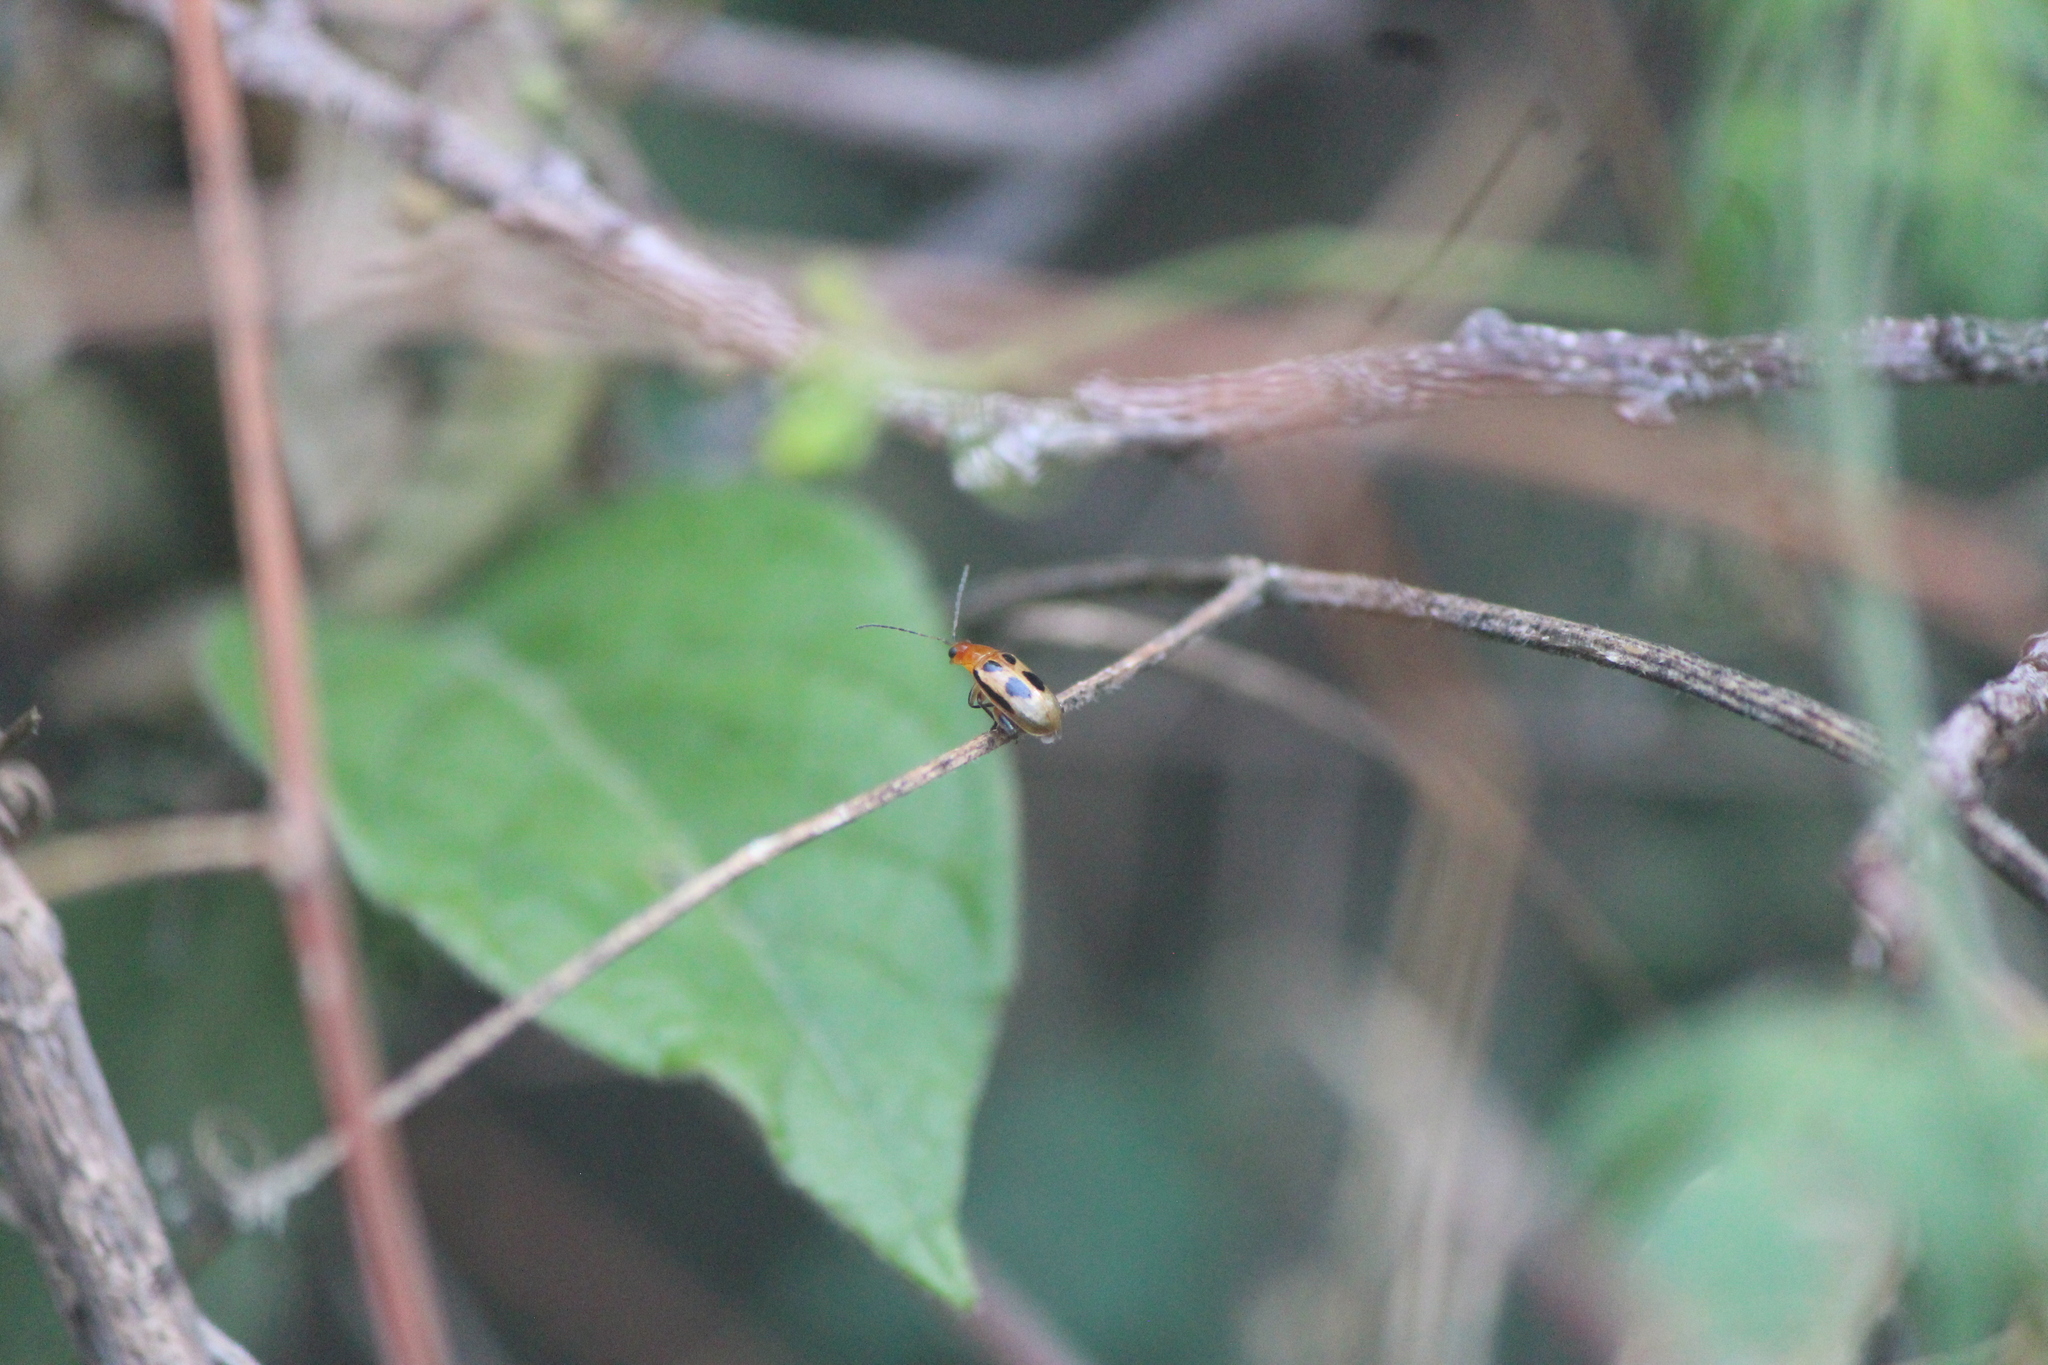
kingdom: Animalia
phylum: Arthropoda
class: Insecta
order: Coleoptera
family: Chrysomelidae
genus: Systena
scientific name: Systena
